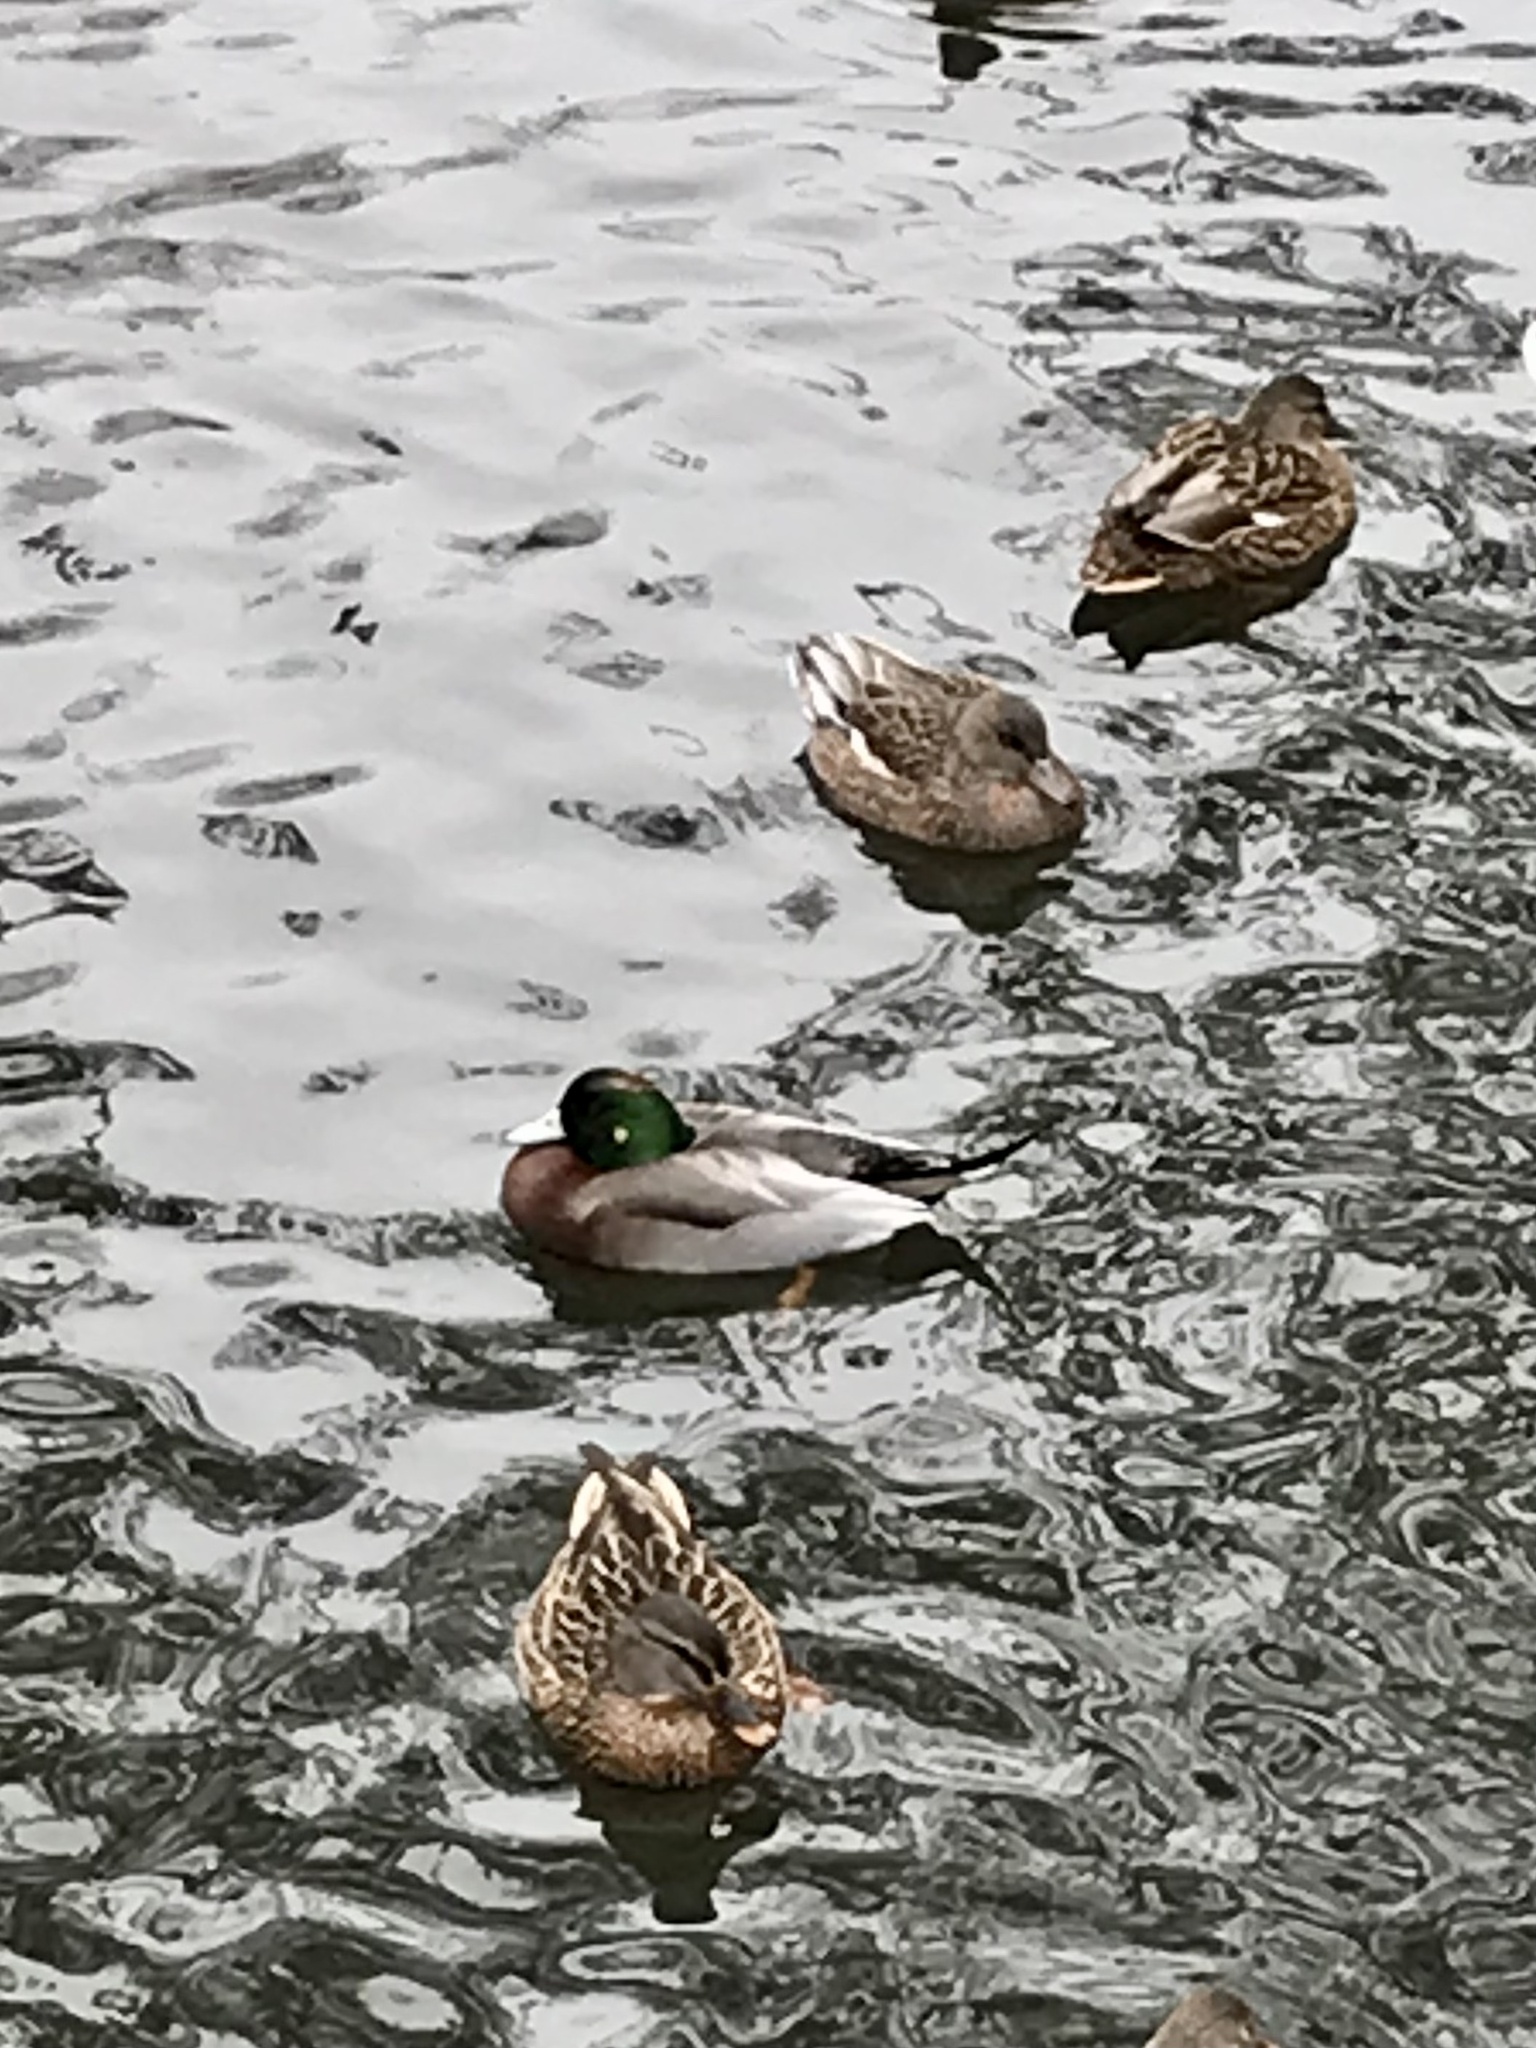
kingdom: Animalia
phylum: Chordata
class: Aves
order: Anseriformes
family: Anatidae
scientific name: Anatidae
